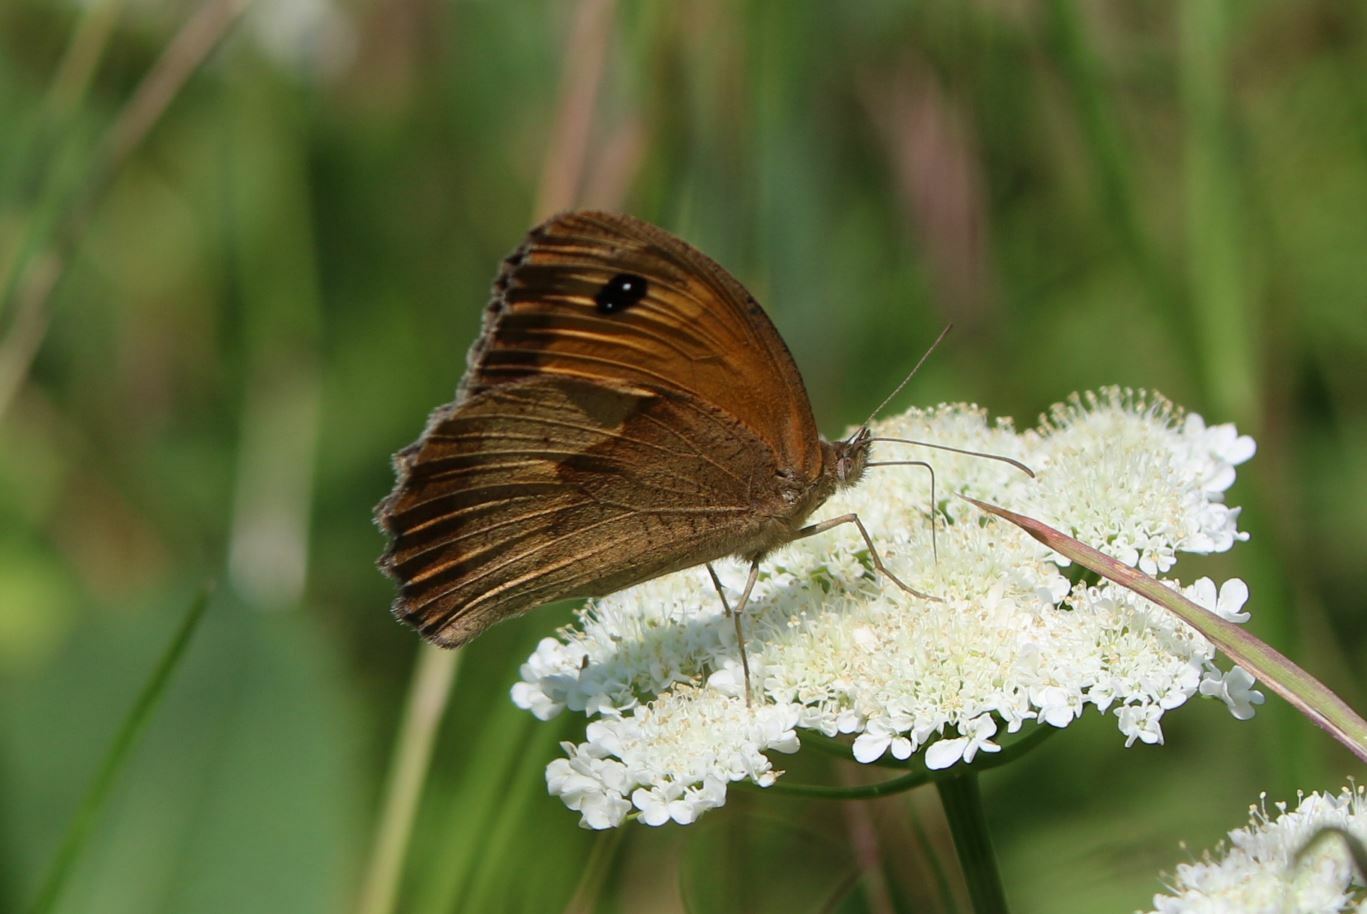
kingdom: Animalia
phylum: Arthropoda
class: Insecta
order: Lepidoptera
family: Nymphalidae
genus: Maniola
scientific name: Maniola jurtina
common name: Meadow brown
